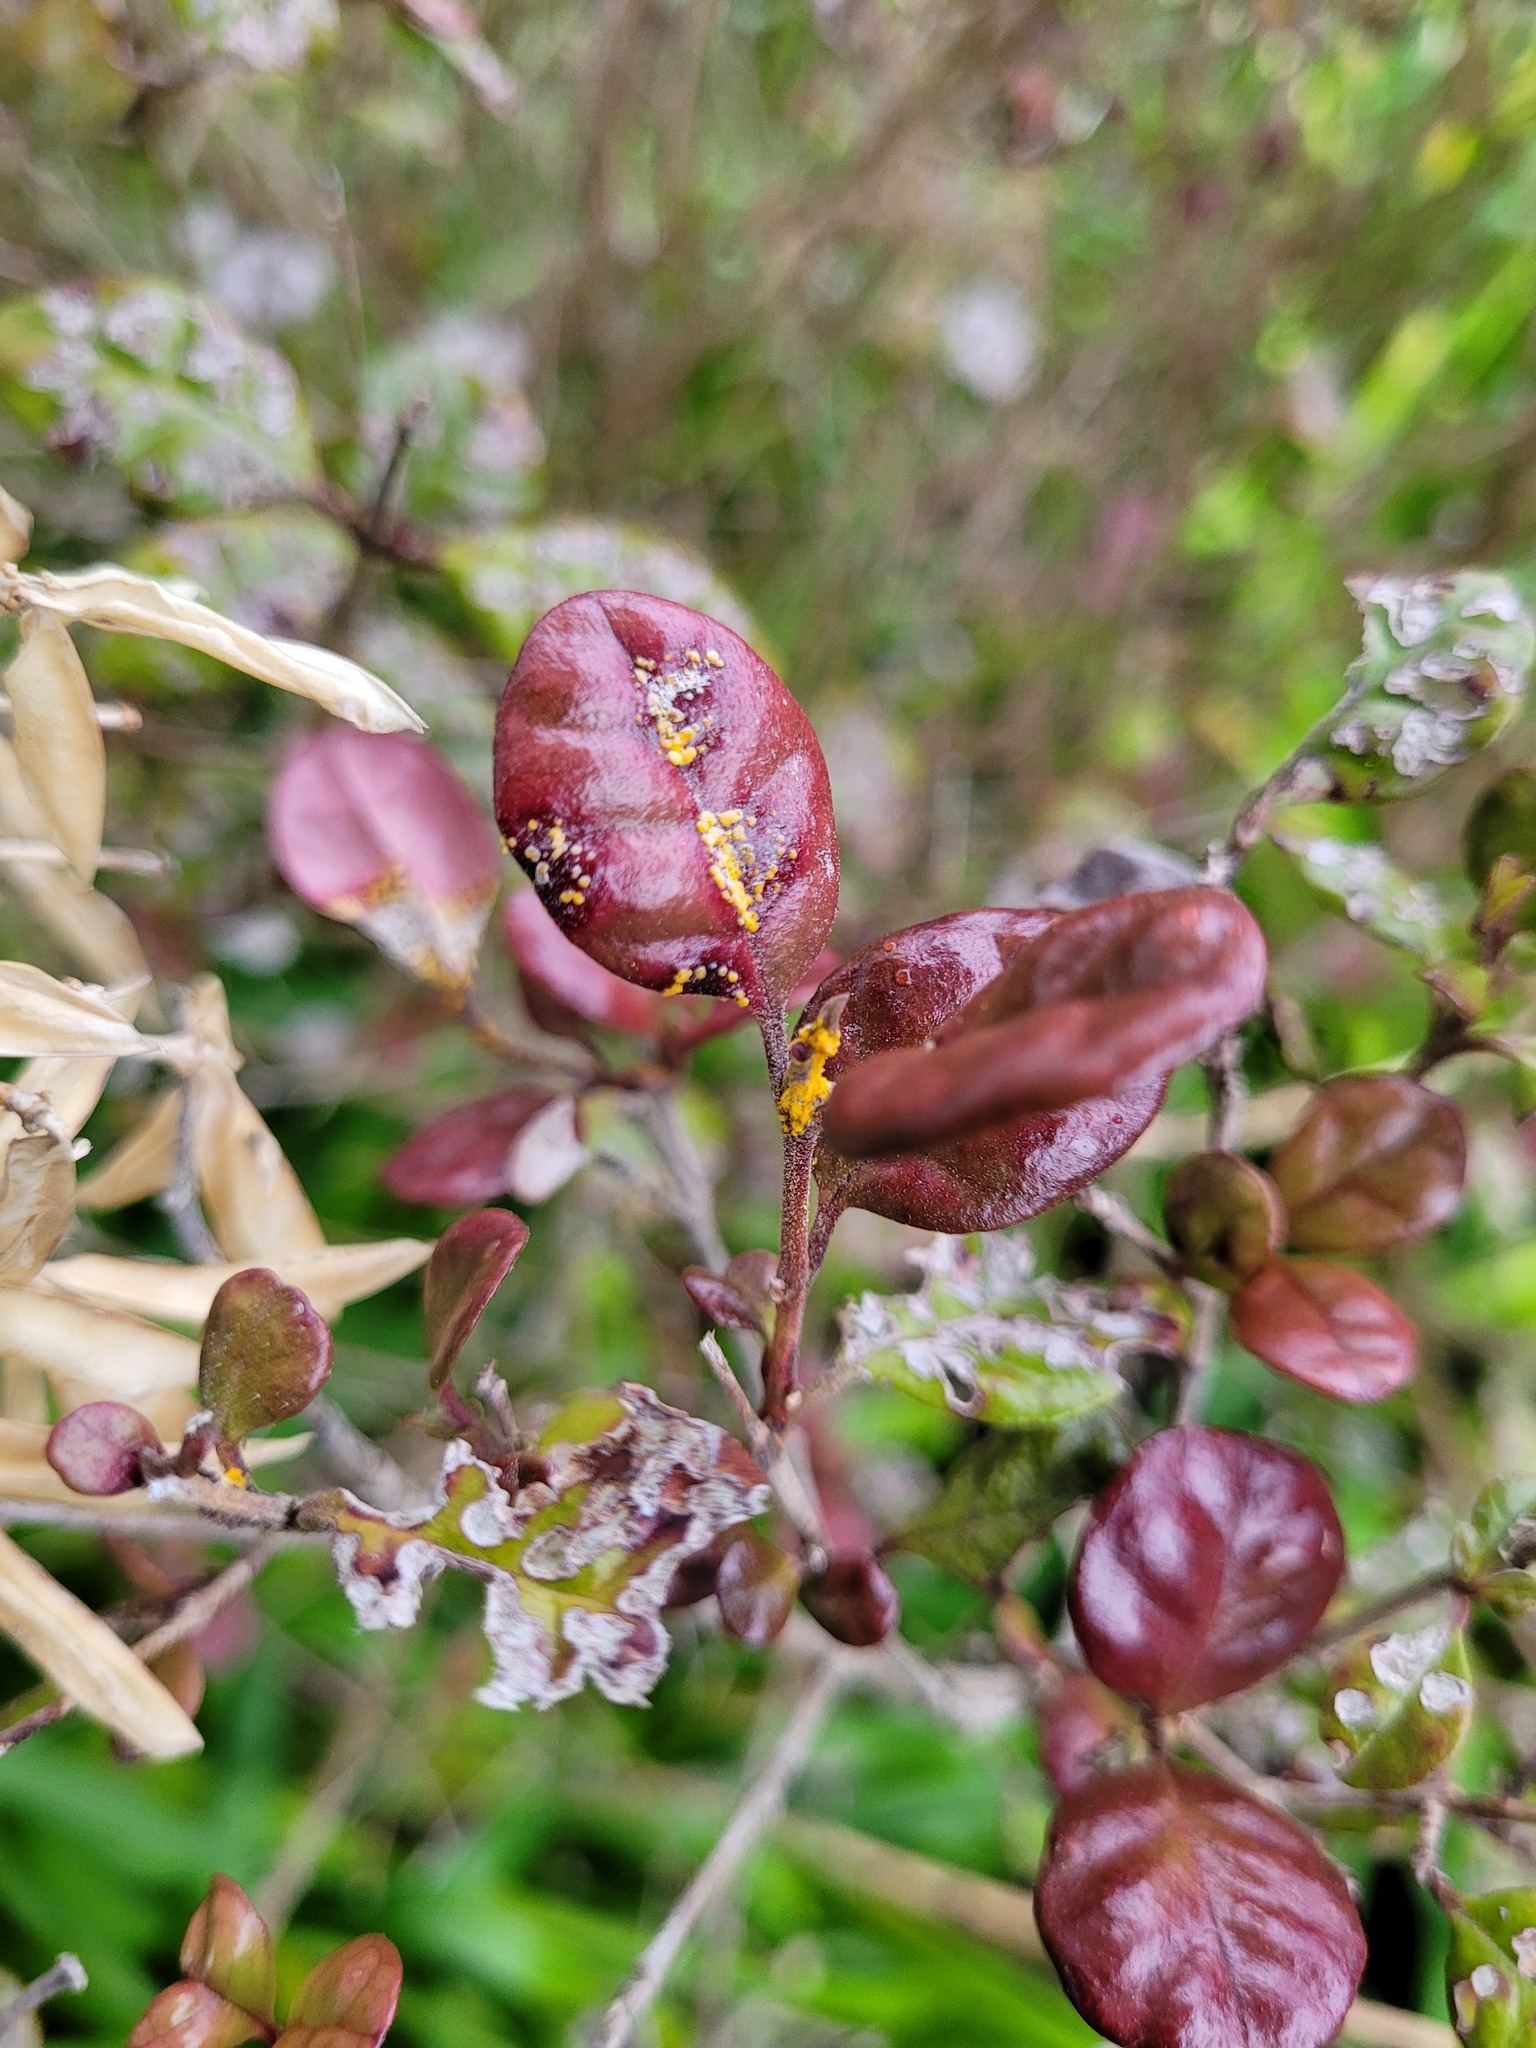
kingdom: Fungi
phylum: Basidiomycota
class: Pucciniomycetes
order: Pucciniales
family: Sphaerophragmiaceae
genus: Austropuccinia
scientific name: Austropuccinia psidii
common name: Myrtle rust
